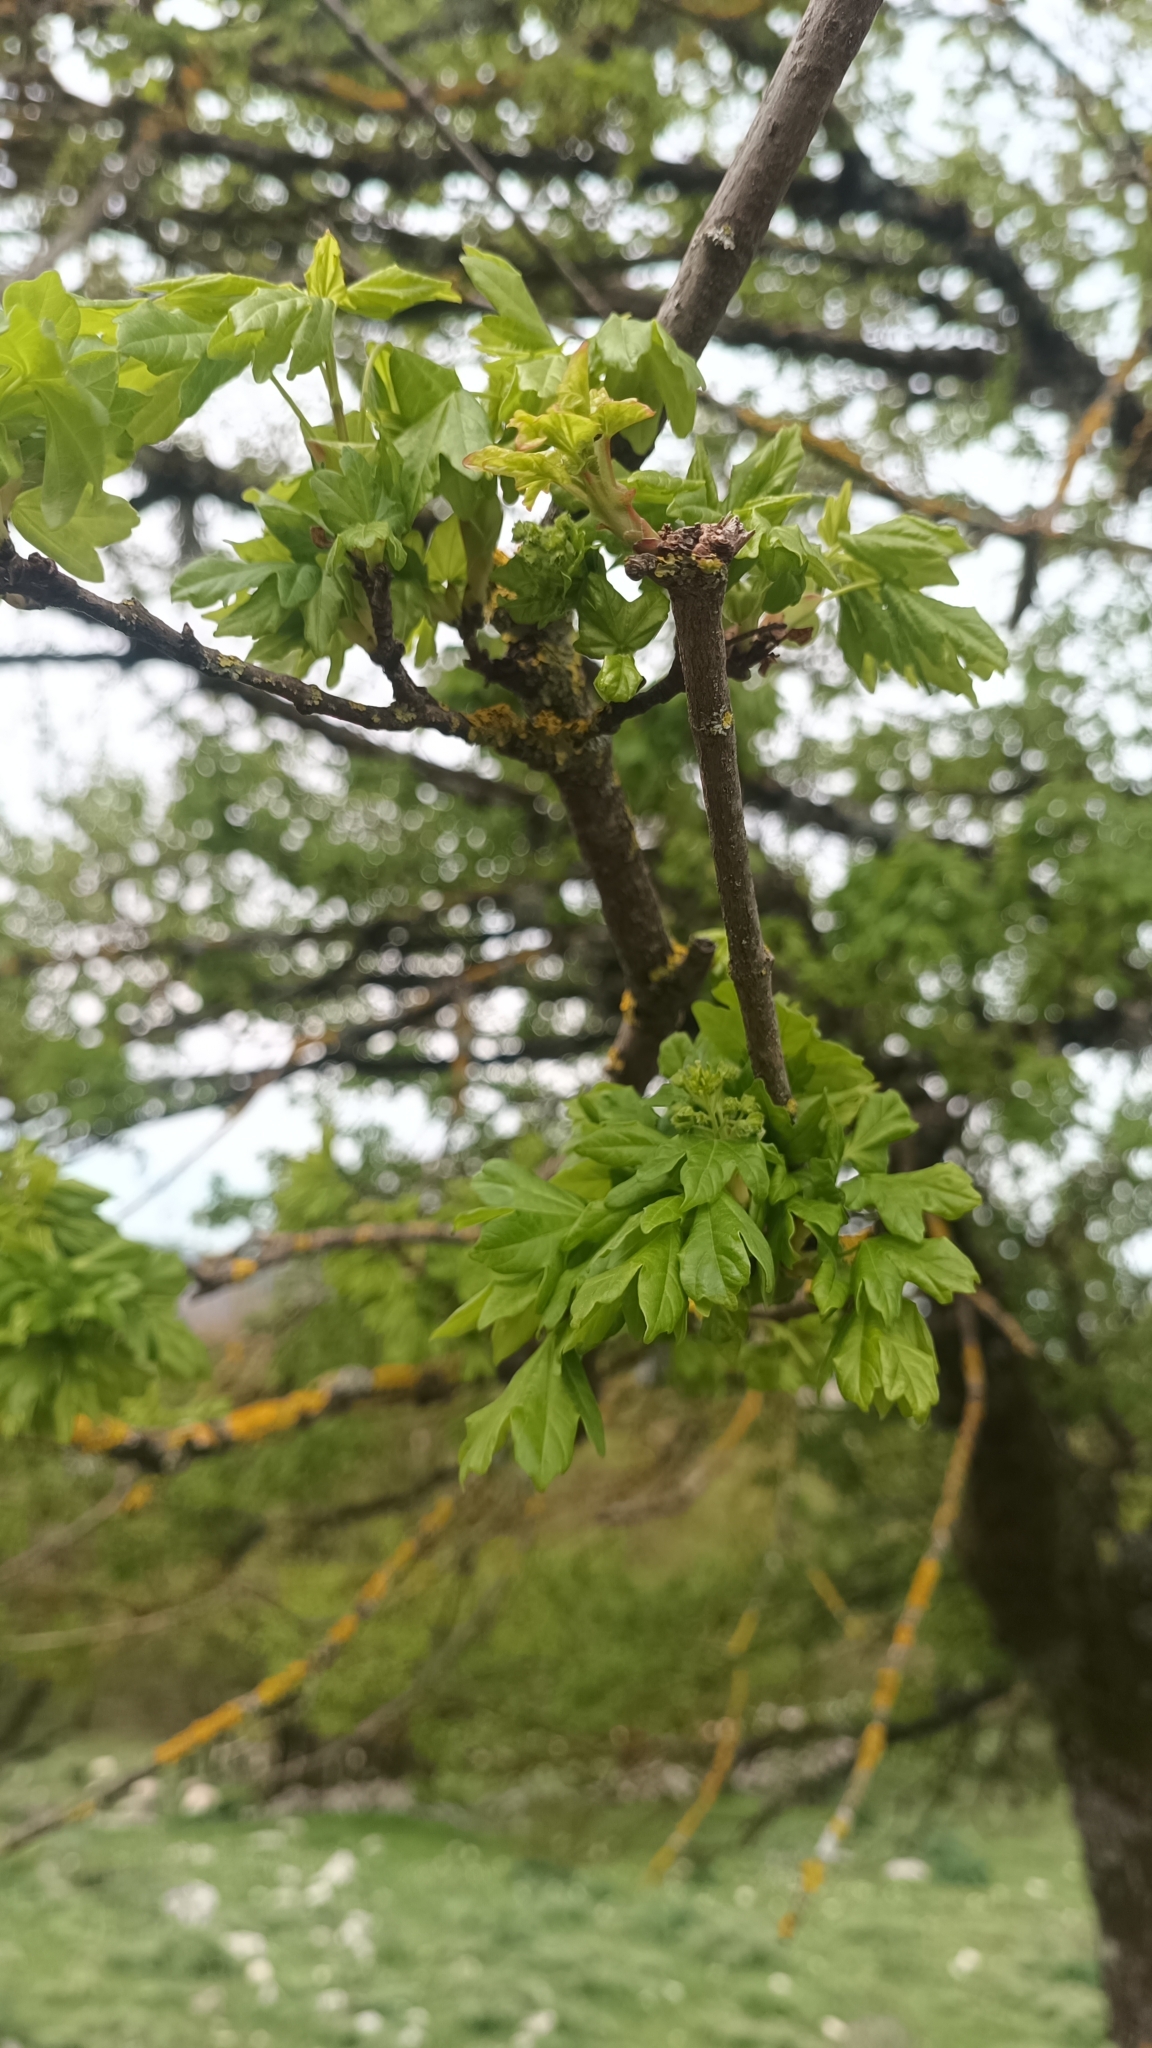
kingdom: Plantae
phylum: Tracheophyta
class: Magnoliopsida
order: Sapindales
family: Sapindaceae
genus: Acer
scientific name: Acer campestre
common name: Field maple
